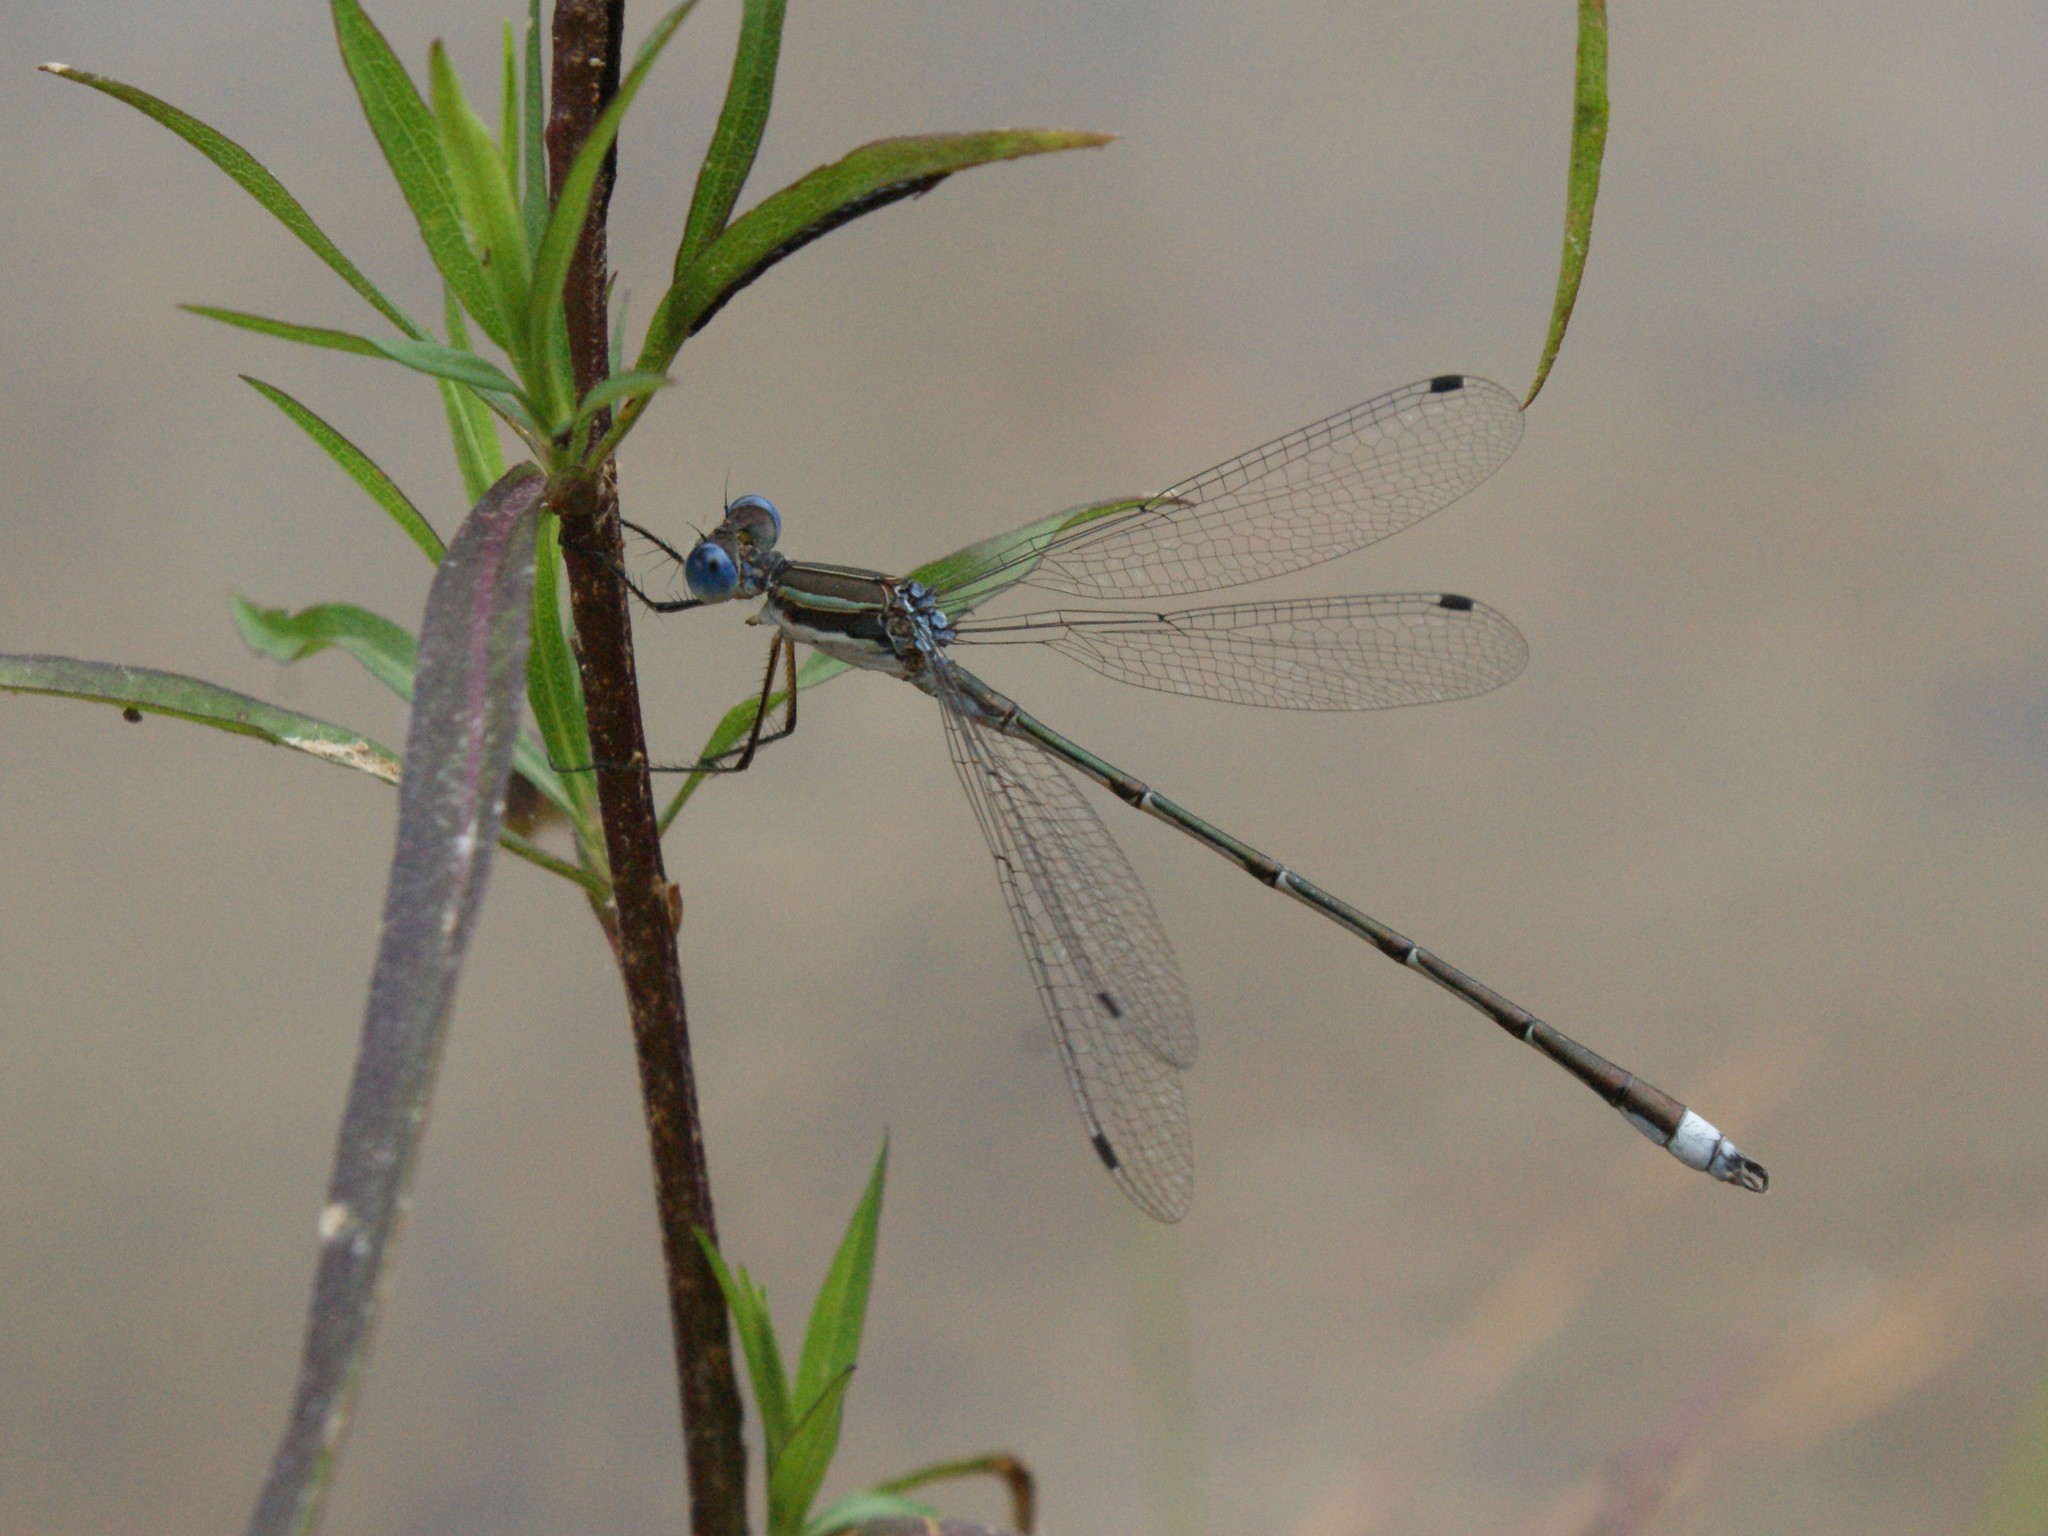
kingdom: Animalia
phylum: Arthropoda
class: Insecta
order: Odonata
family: Lestidae
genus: Lestes
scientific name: Lestes australis
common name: Southern spreadwing
